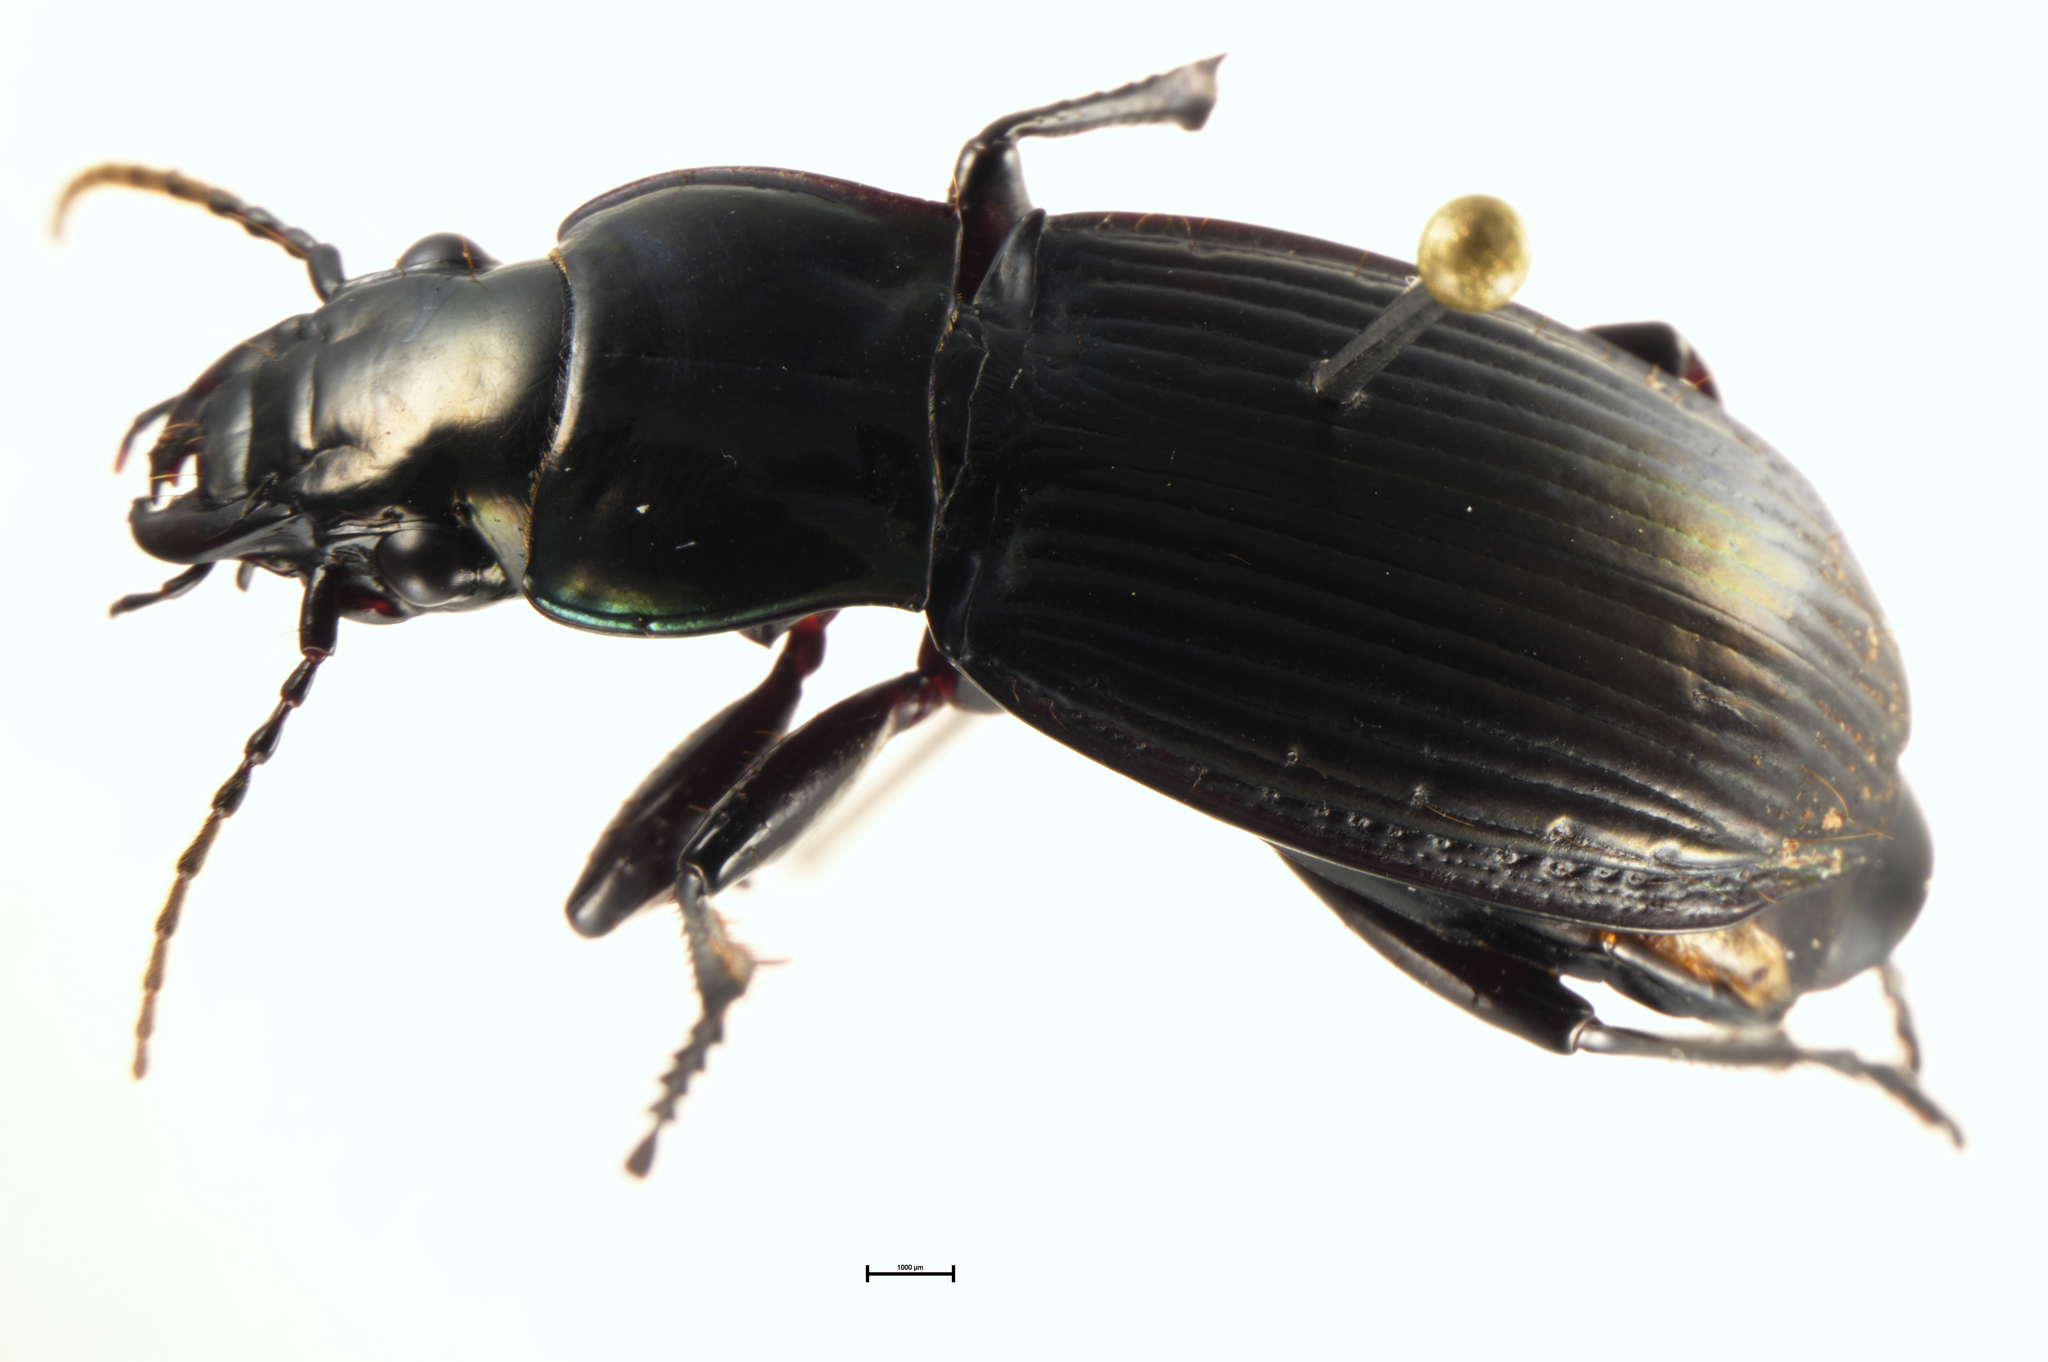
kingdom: Animalia
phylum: Arthropoda
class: Insecta
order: Coleoptera
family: Carabidae
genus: Megadromus
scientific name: Megadromus enysi
